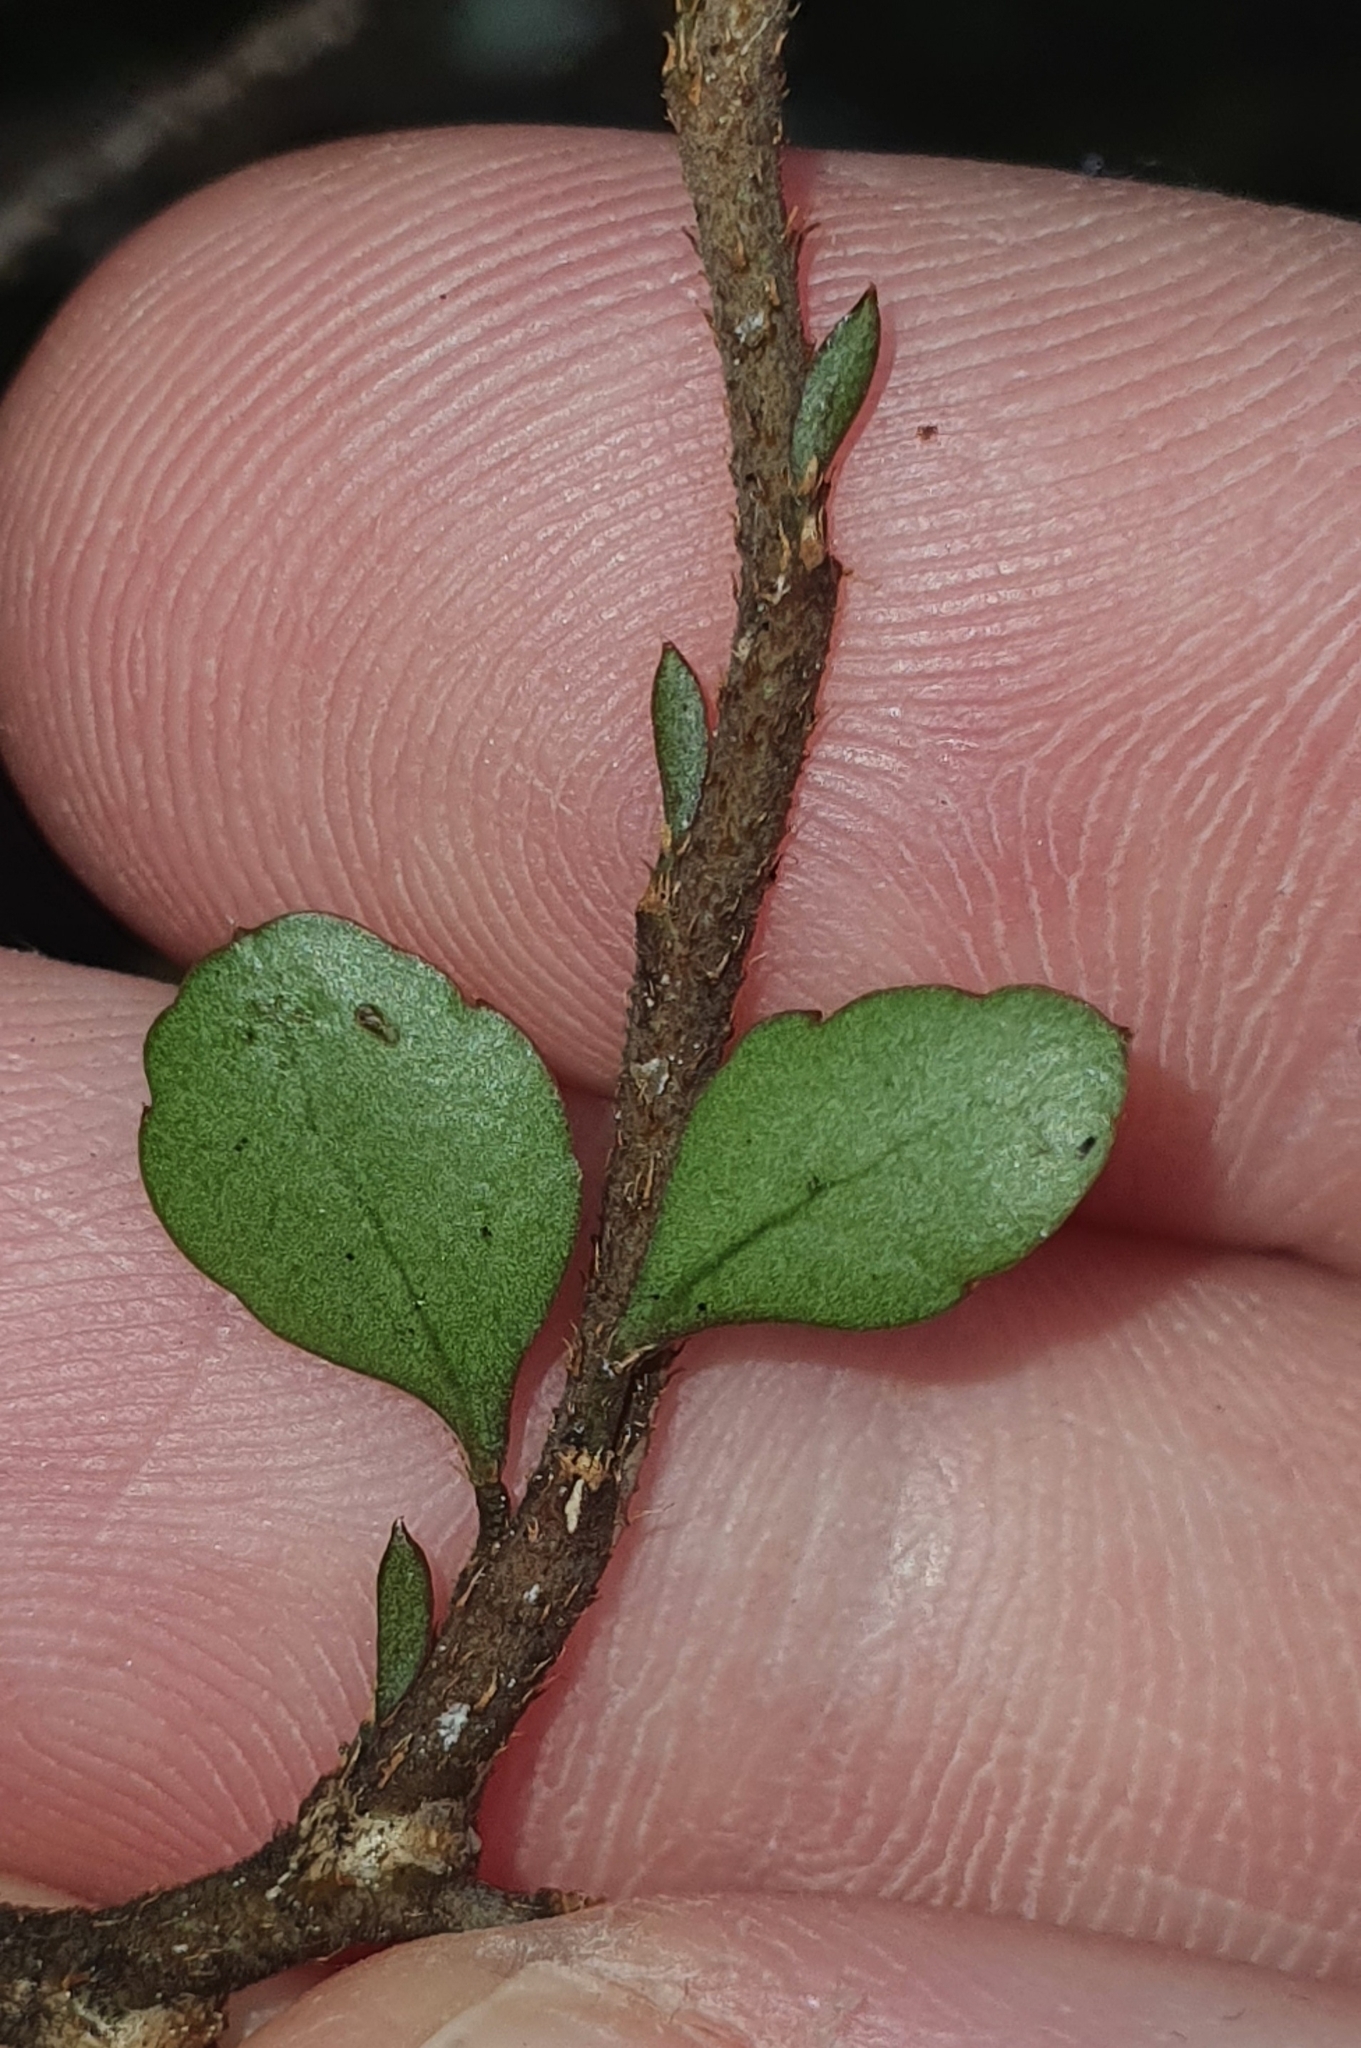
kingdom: Plantae
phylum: Tracheophyta
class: Magnoliopsida
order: Apiales
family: Araliaceae
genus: Raukaua
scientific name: Raukaua anomalus
